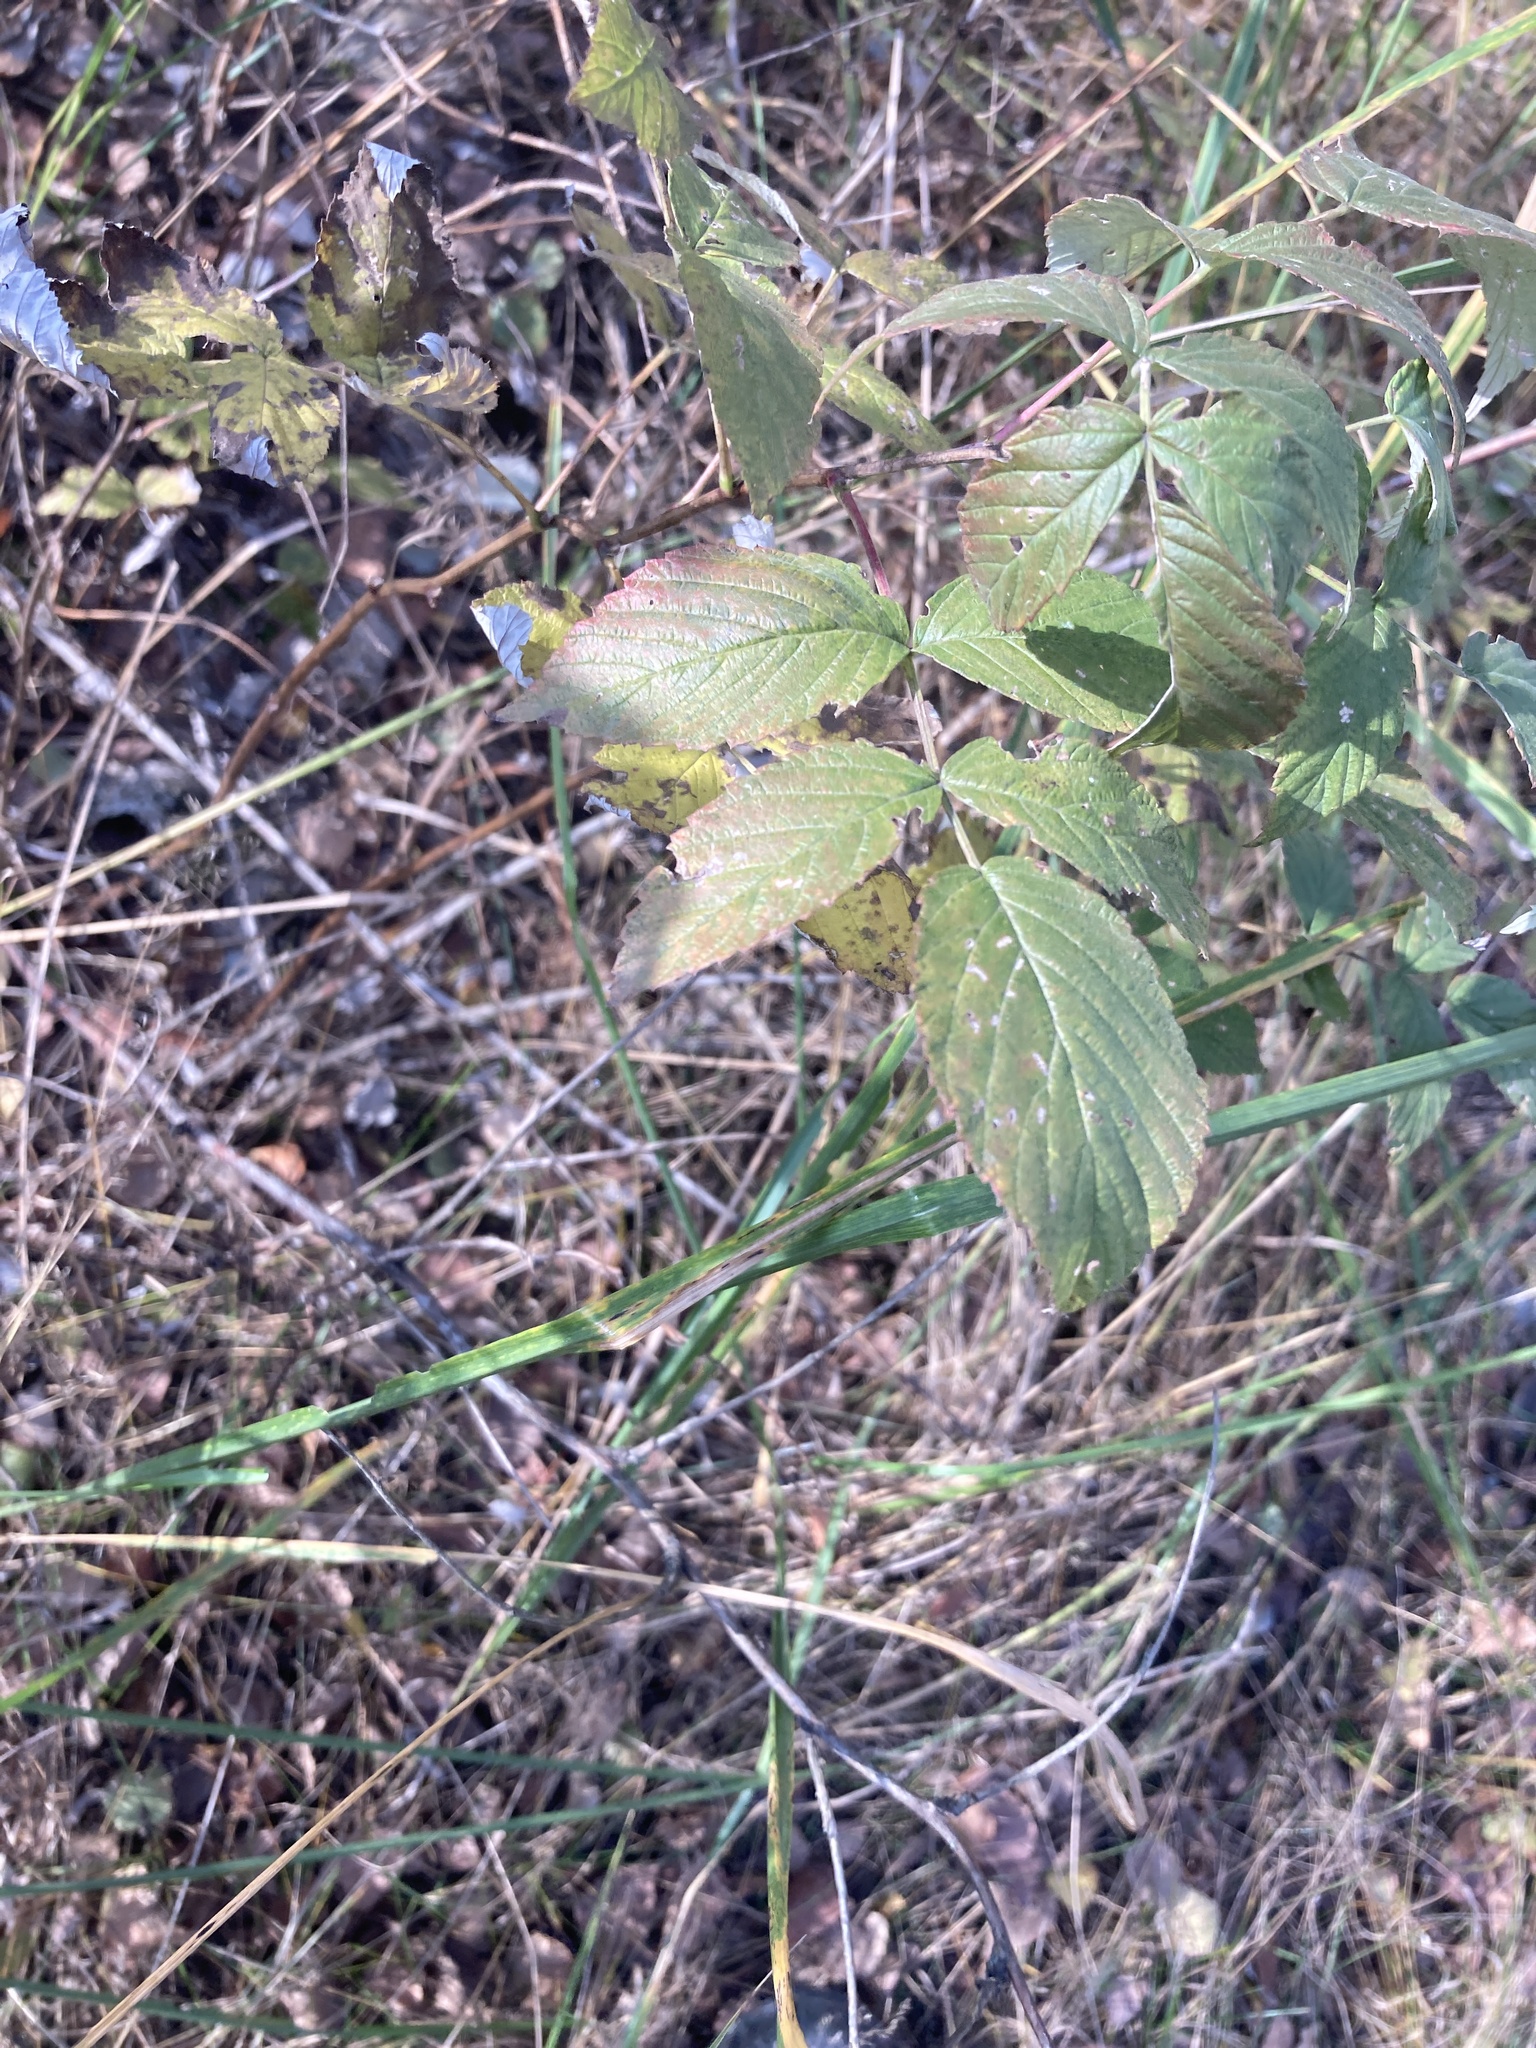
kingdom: Plantae
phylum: Tracheophyta
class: Magnoliopsida
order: Rosales
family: Rosaceae
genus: Rubus
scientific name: Rubus idaeus
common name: Raspberry
